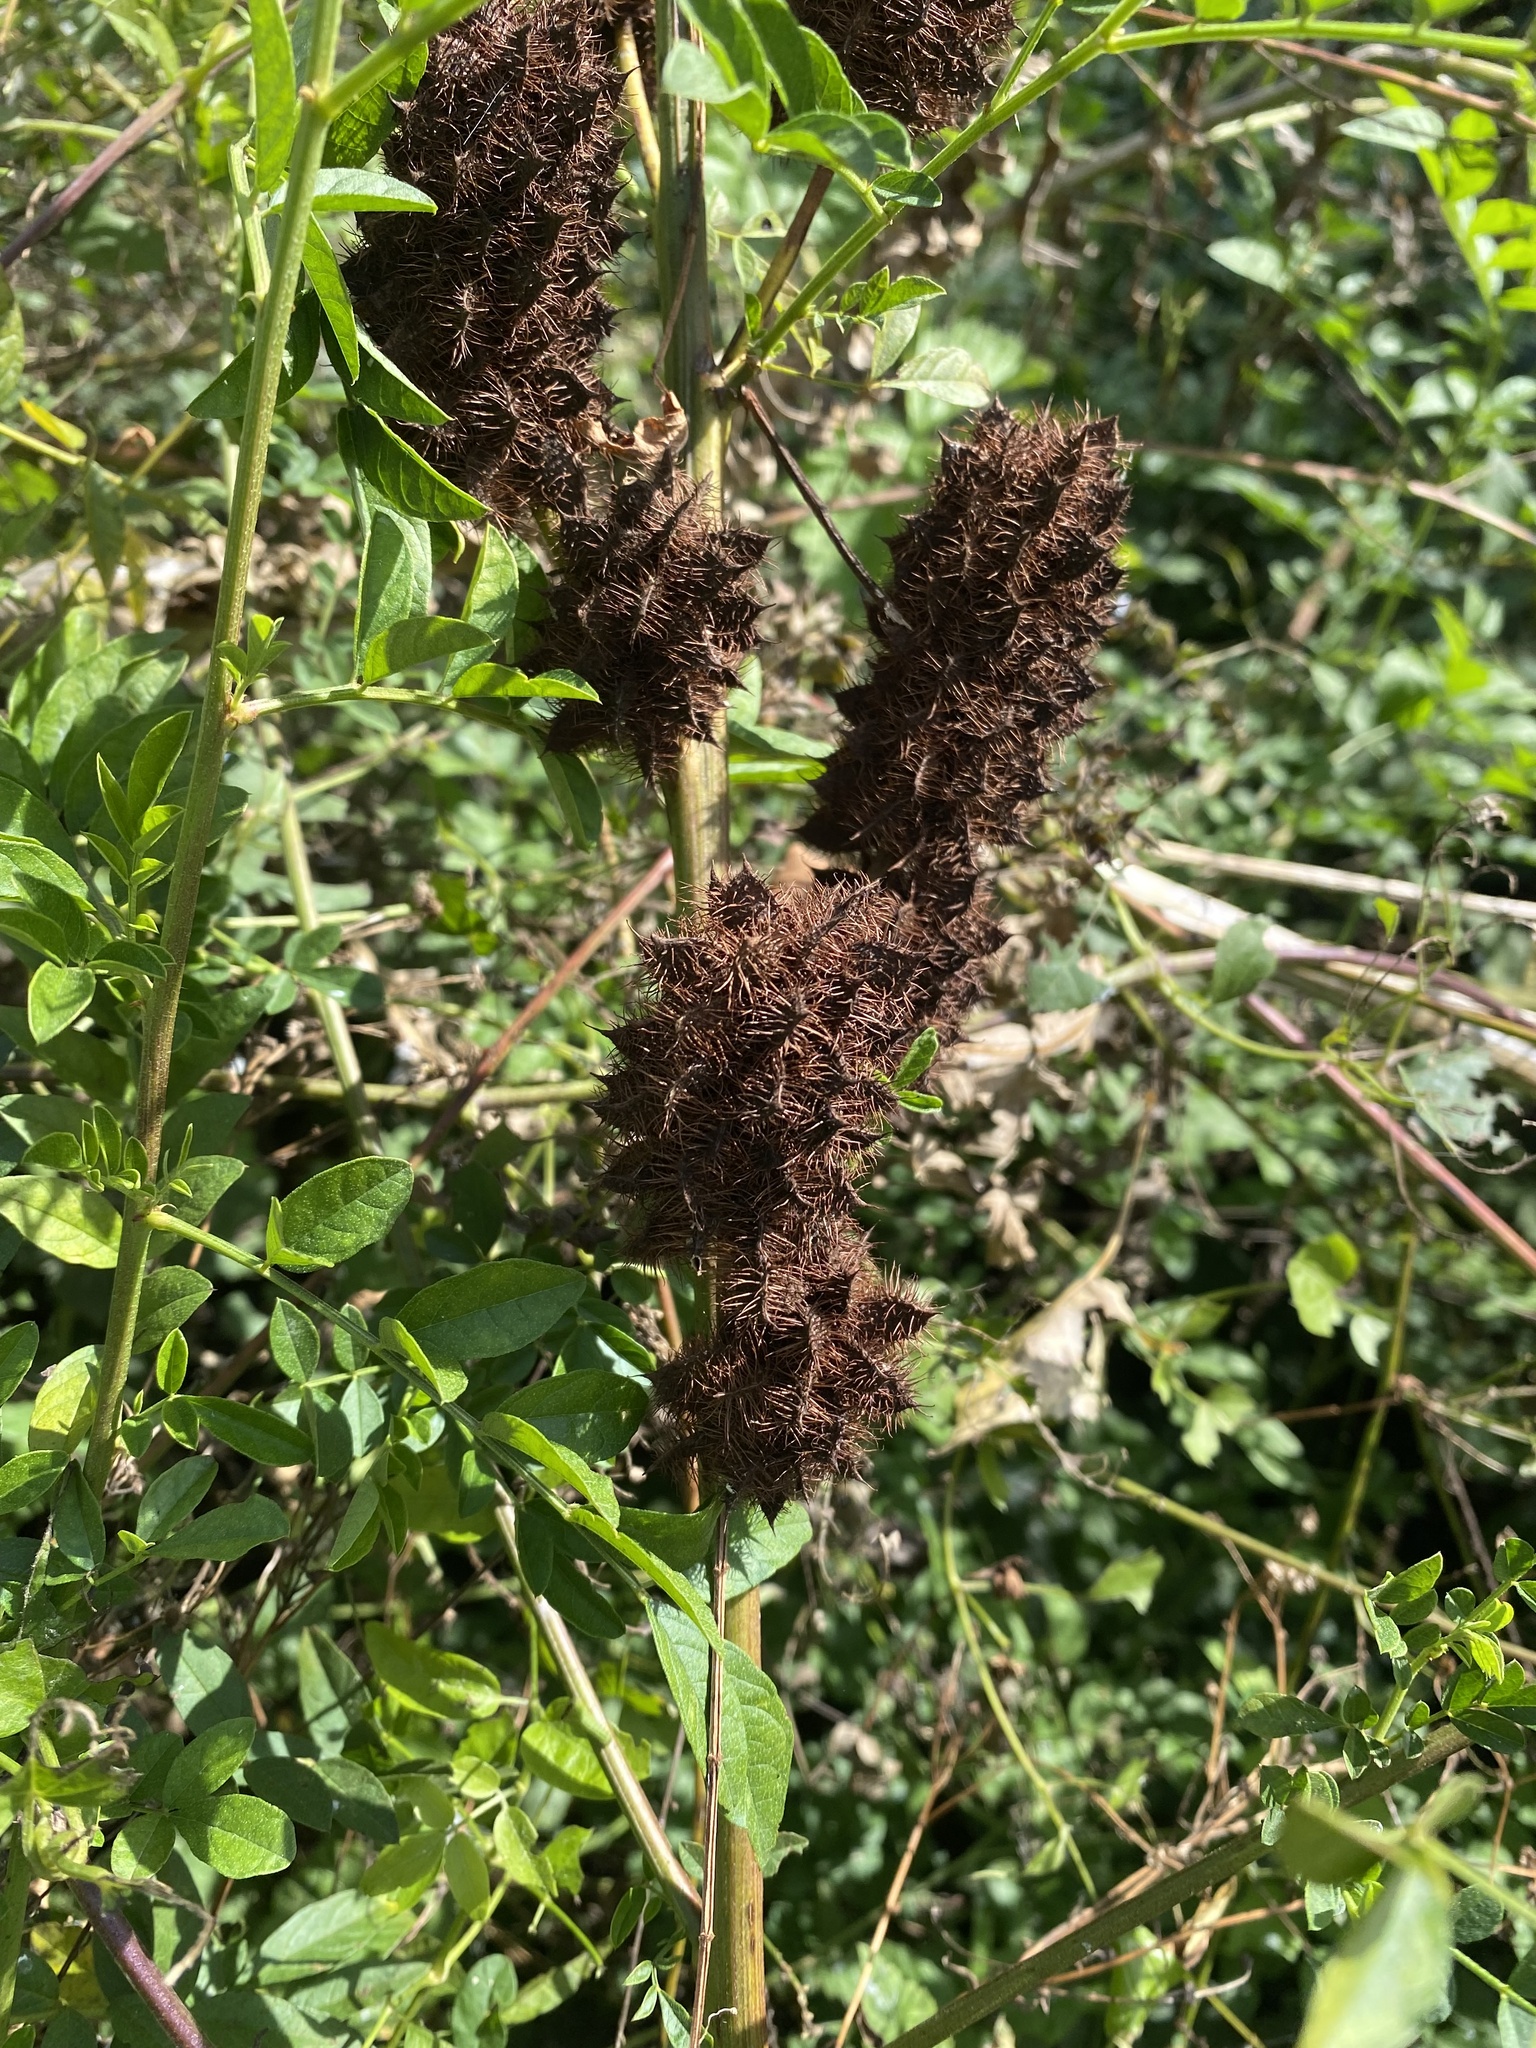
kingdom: Plantae
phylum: Tracheophyta
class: Magnoliopsida
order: Fabales
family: Fabaceae
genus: Glycyrrhiza
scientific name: Glycyrrhiza echinata
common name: German liquorice
